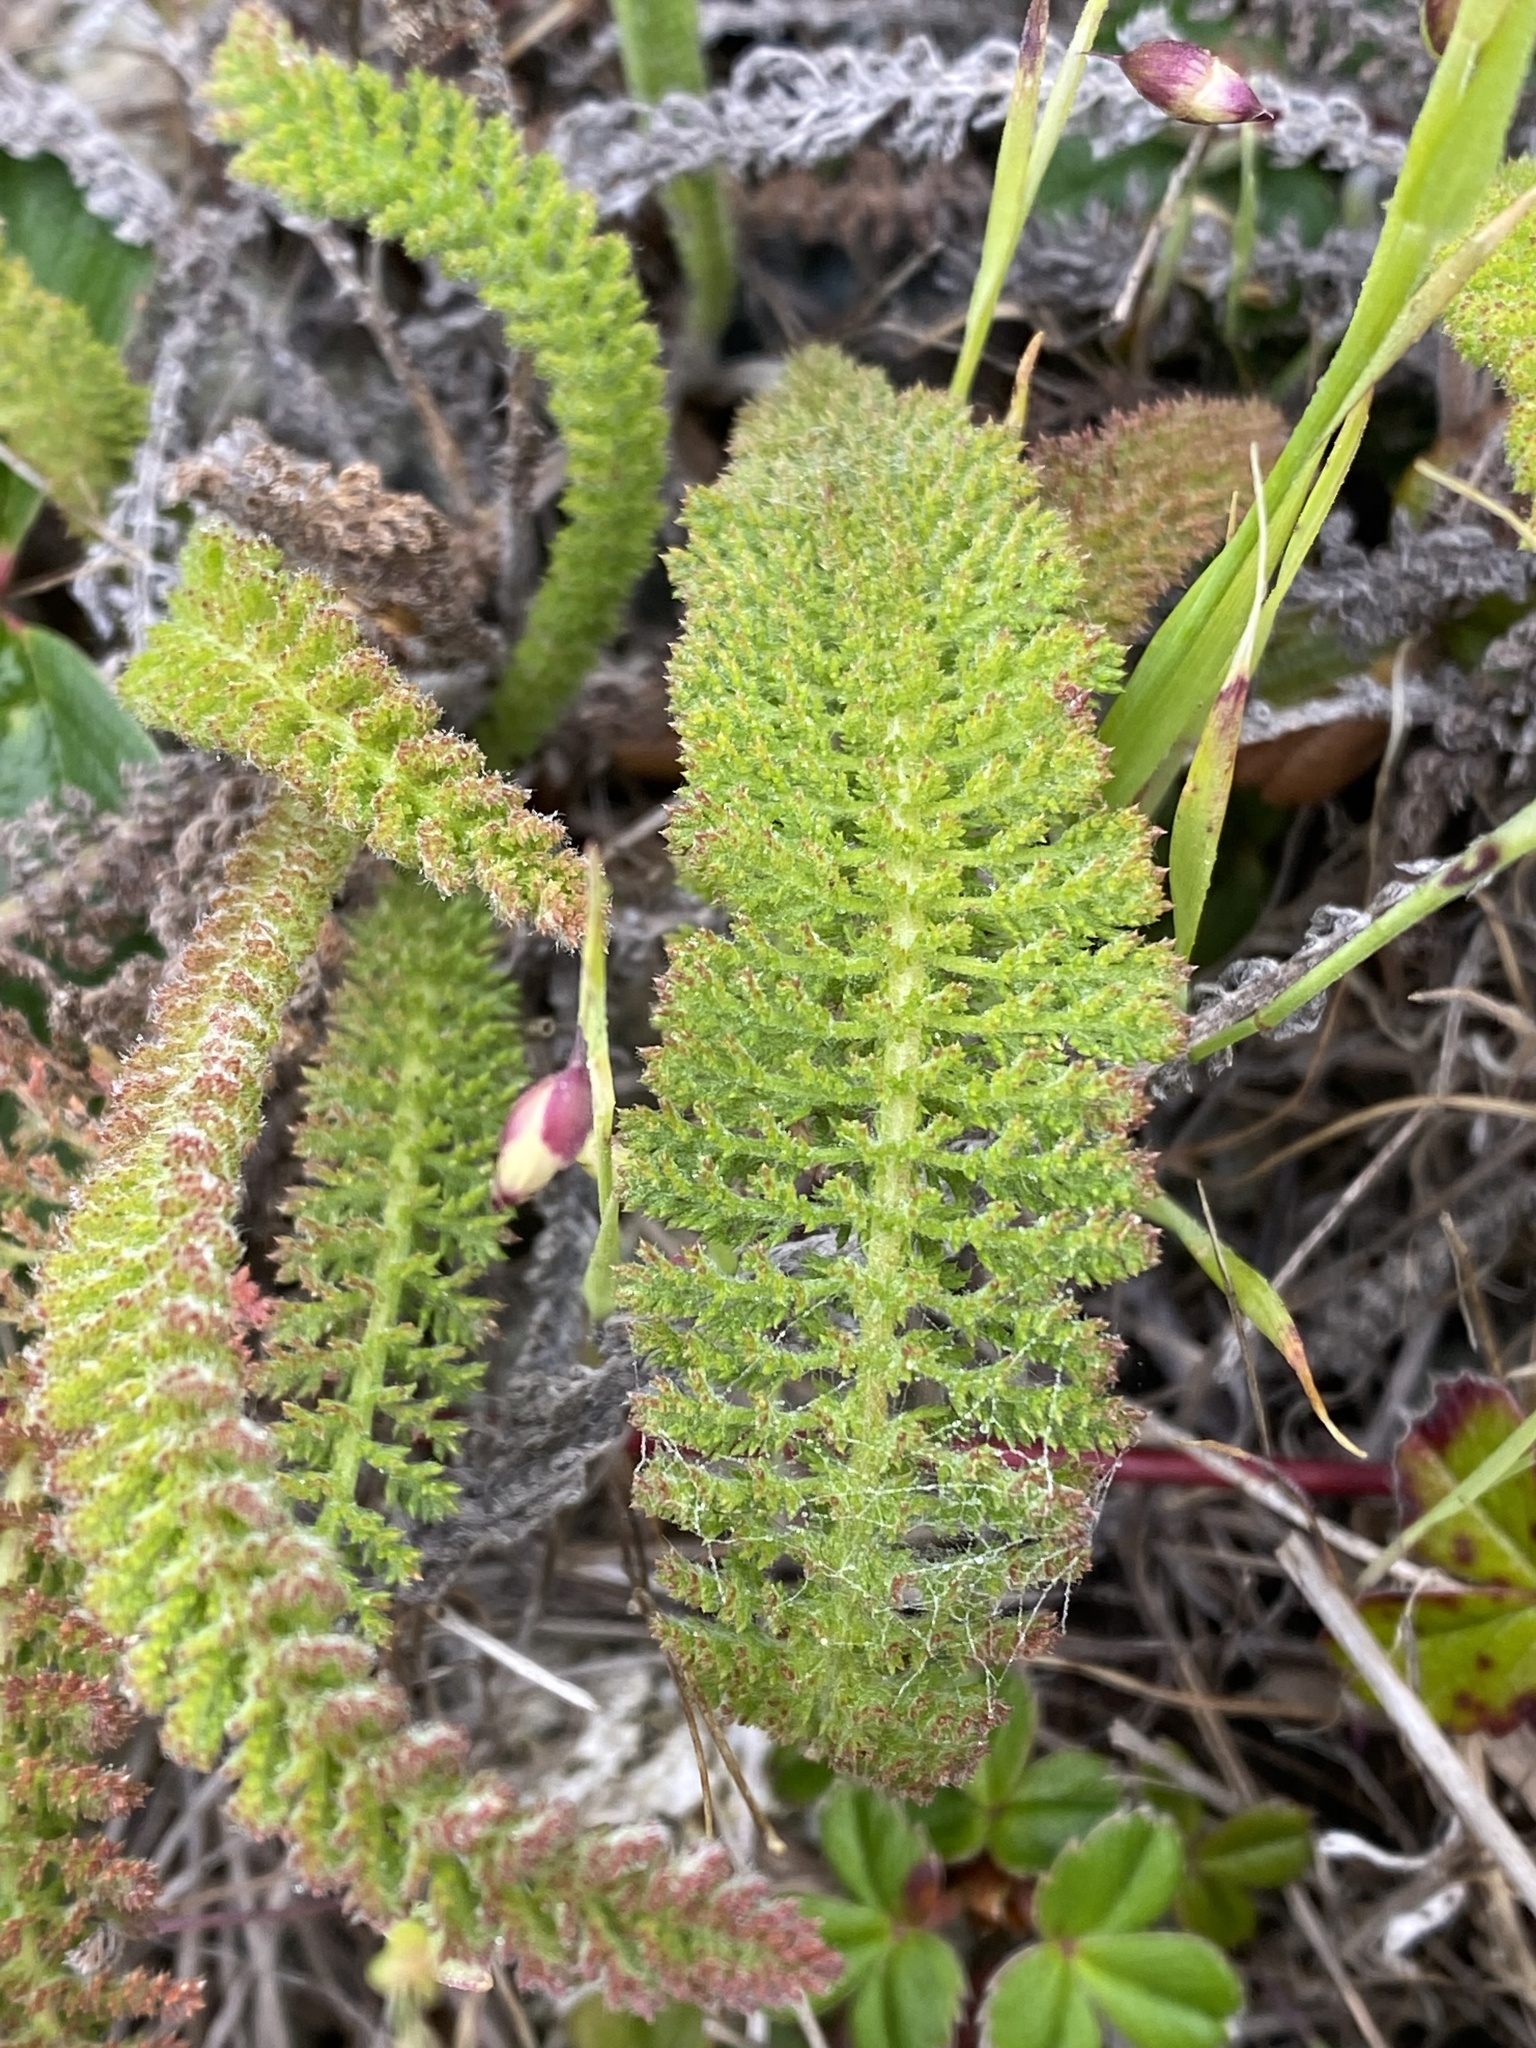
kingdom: Plantae
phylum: Tracheophyta
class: Magnoliopsida
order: Asterales
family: Asteraceae
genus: Achillea
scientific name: Achillea millefolium
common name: Yarrow
